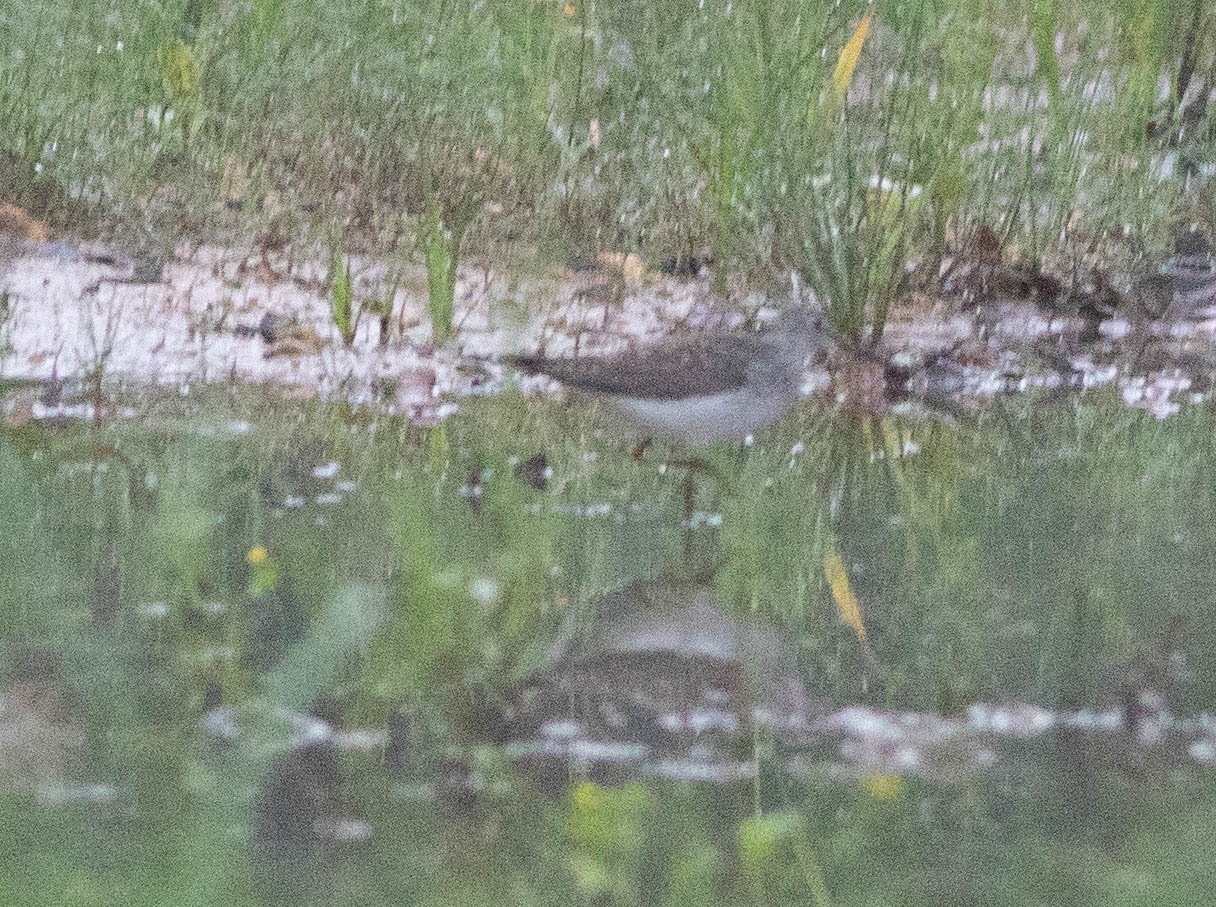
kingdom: Animalia
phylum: Chordata
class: Aves
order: Charadriiformes
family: Scolopacidae
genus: Tringa
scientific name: Tringa solitaria
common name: Solitary sandpiper
